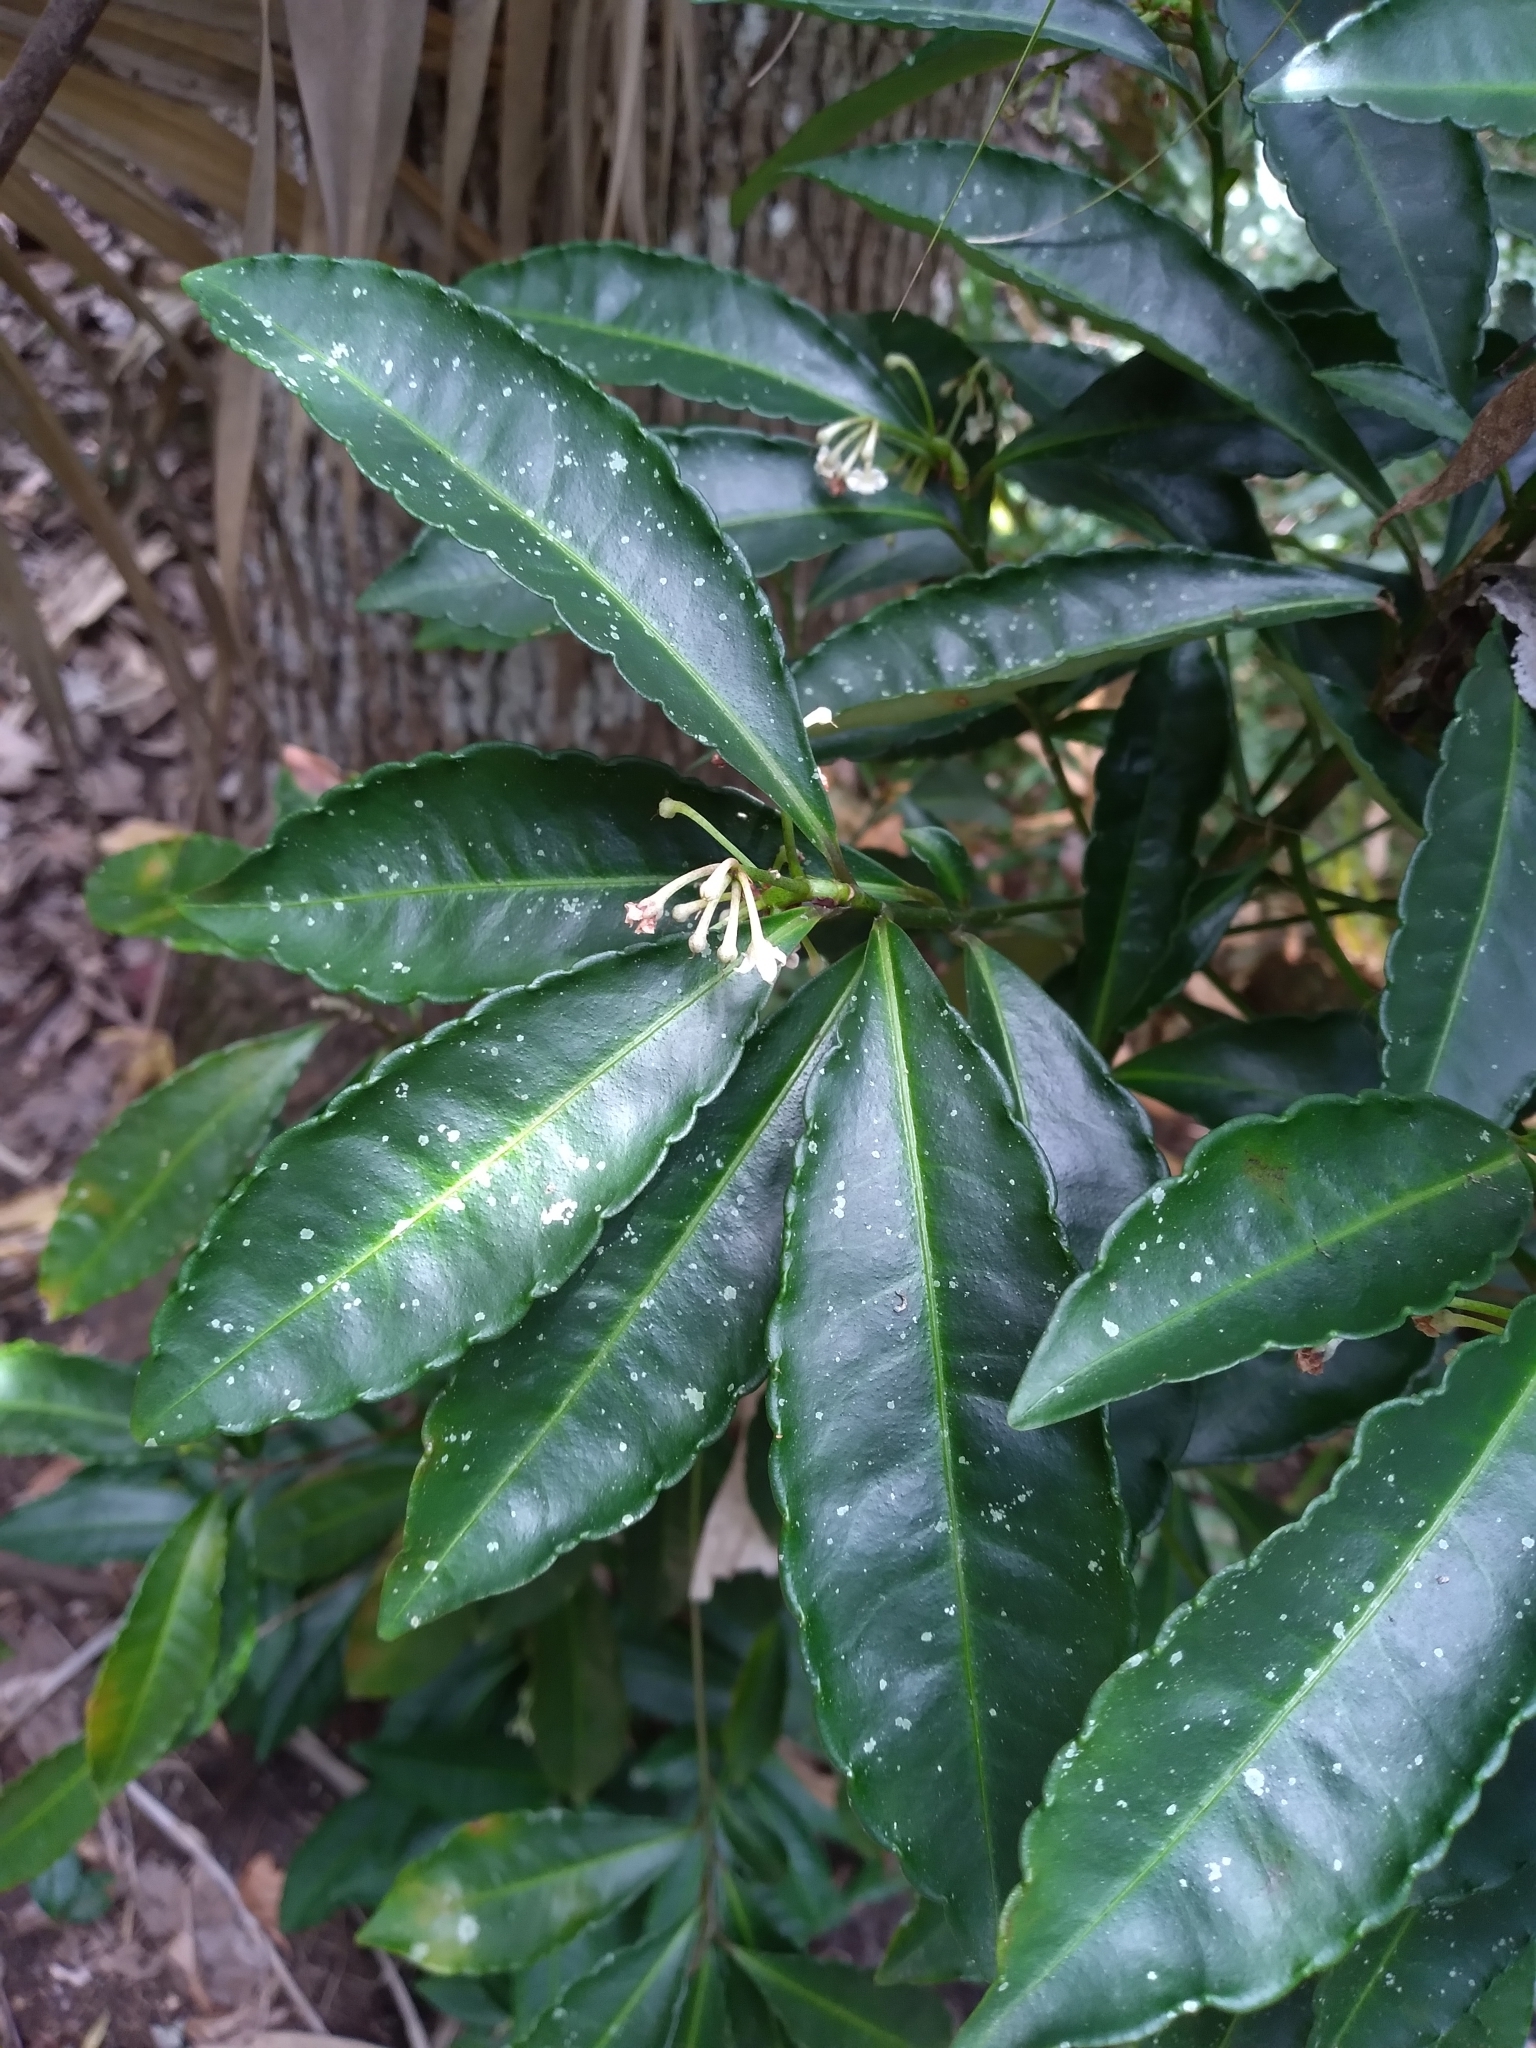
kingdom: Plantae
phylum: Tracheophyta
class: Magnoliopsida
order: Ericales
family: Primulaceae
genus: Ardisia
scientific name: Ardisia crenata
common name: Hen's eyes
